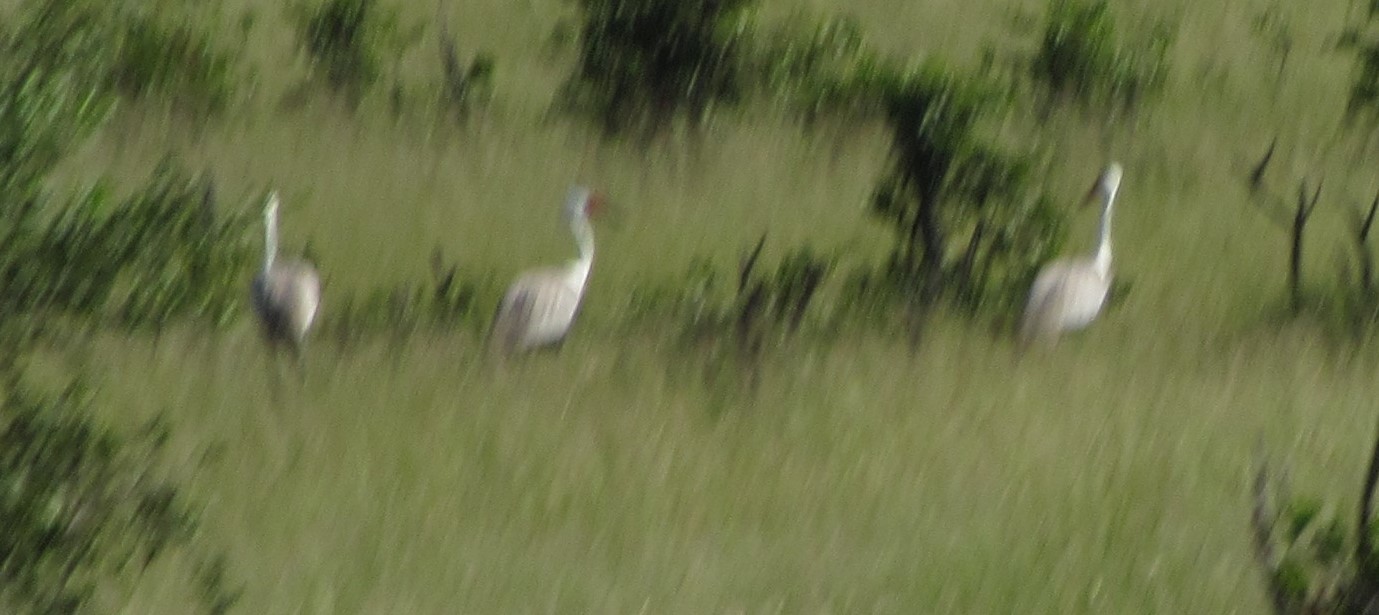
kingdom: Animalia
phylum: Chordata
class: Aves
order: Gruiformes
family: Gruidae
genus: Bugeranus
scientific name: Bugeranus carunculatus
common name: Wattled crane
